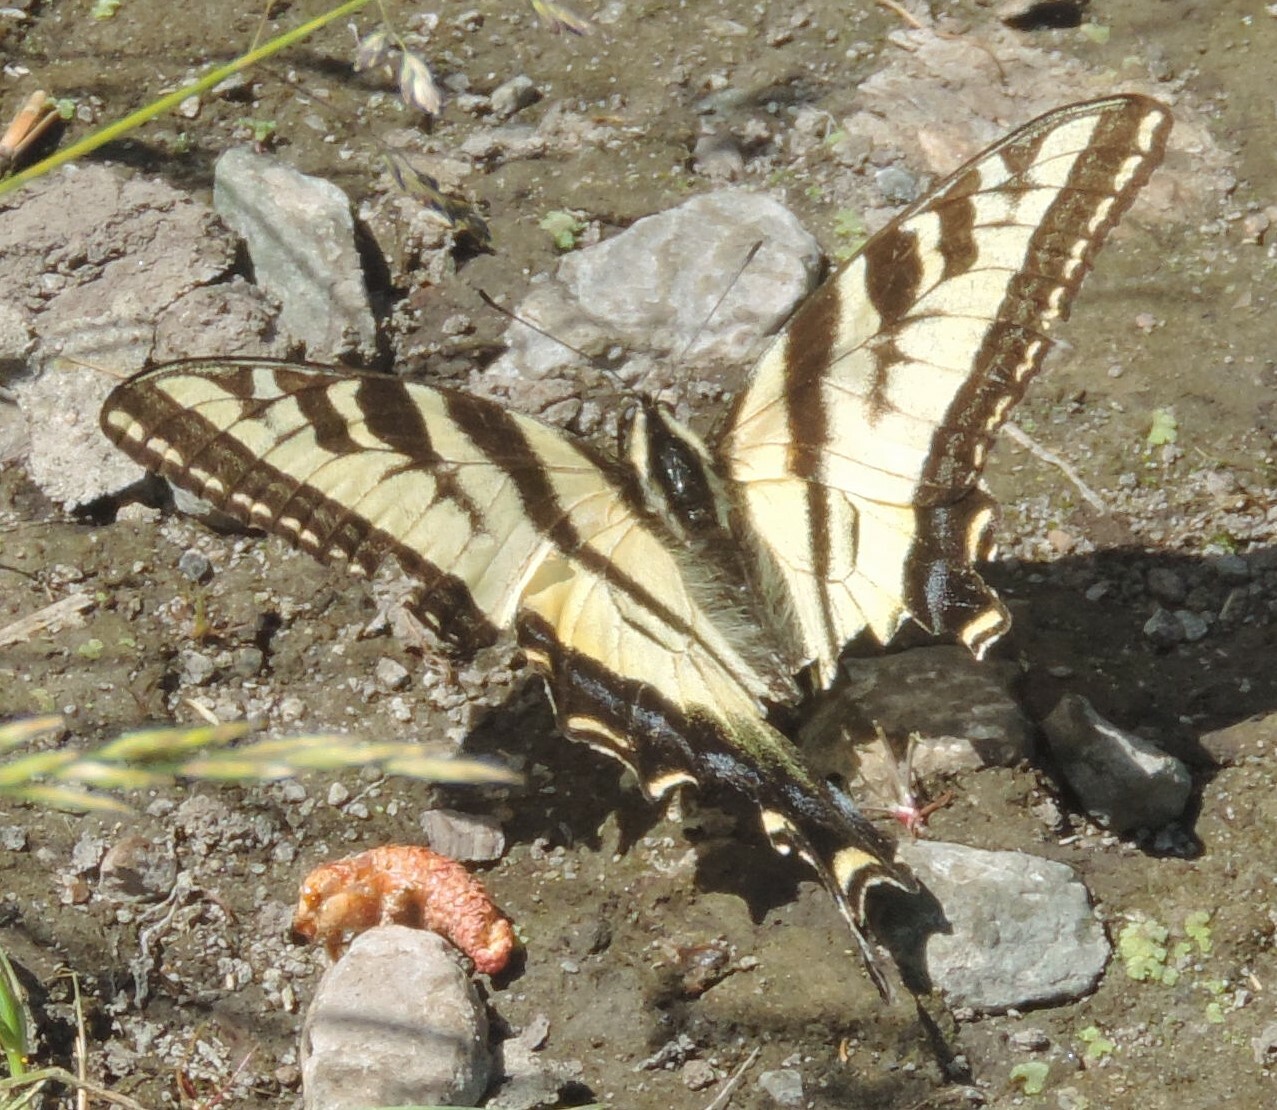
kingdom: Animalia
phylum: Arthropoda
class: Insecta
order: Lepidoptera
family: Papilionidae
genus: Papilio
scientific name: Papilio rutulus
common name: Western tiger swallowtail
